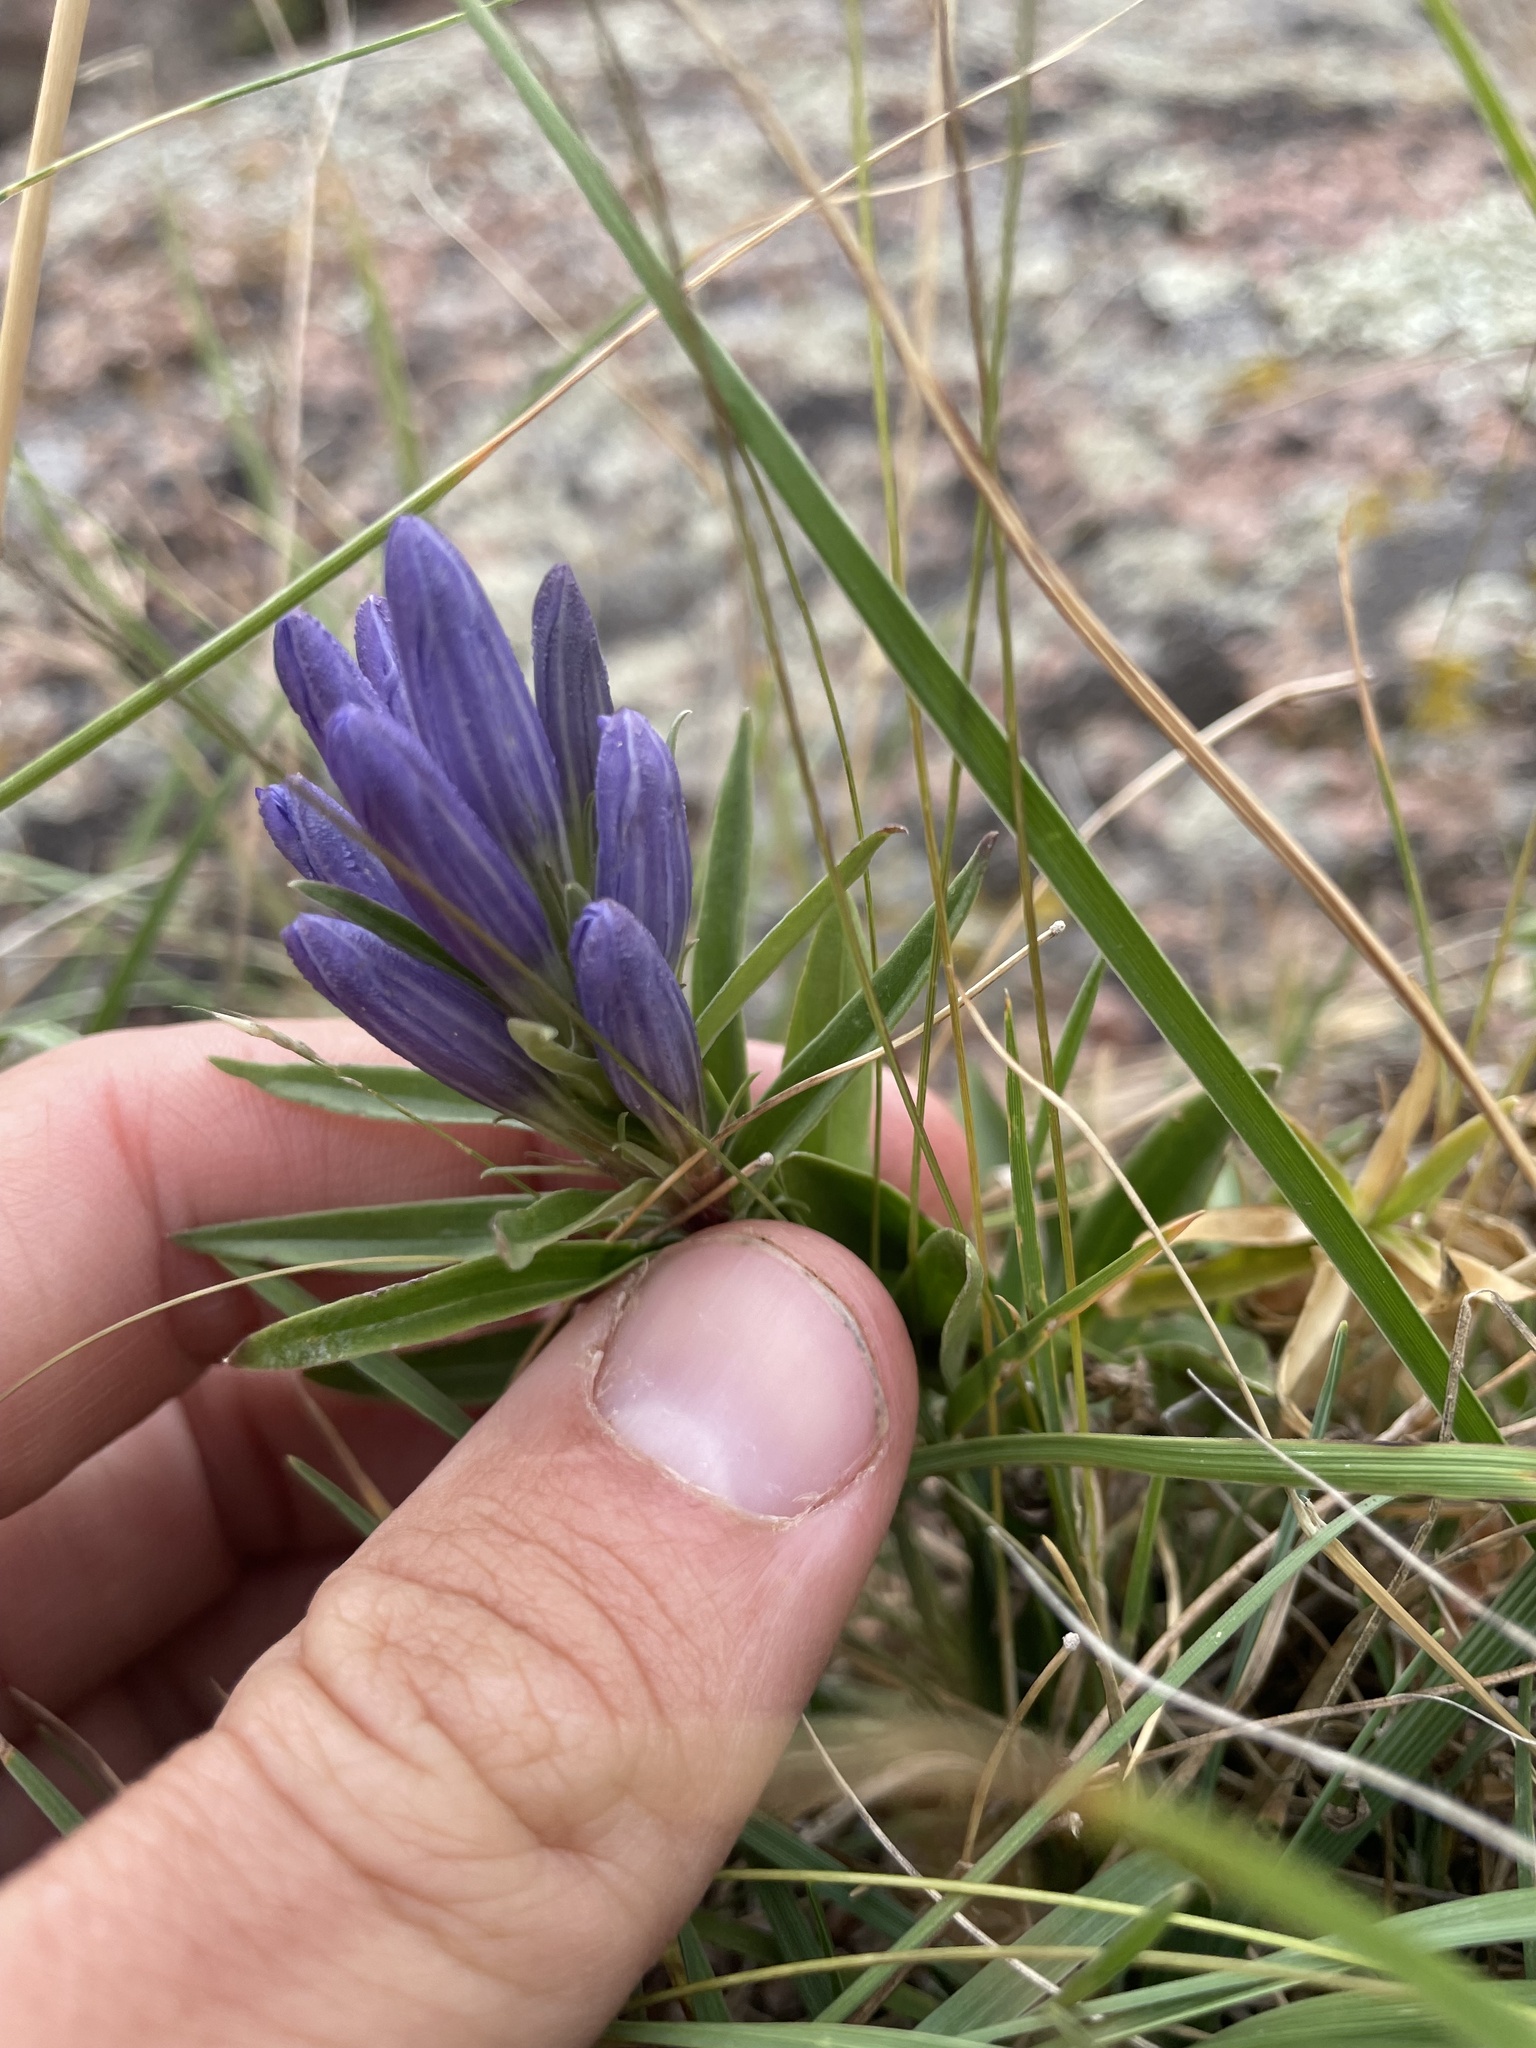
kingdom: Plantae
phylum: Tracheophyta
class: Magnoliopsida
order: Gentianales
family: Gentianaceae
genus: Gentiana
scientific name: Gentiana affinis
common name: Rocky mountain gentian
